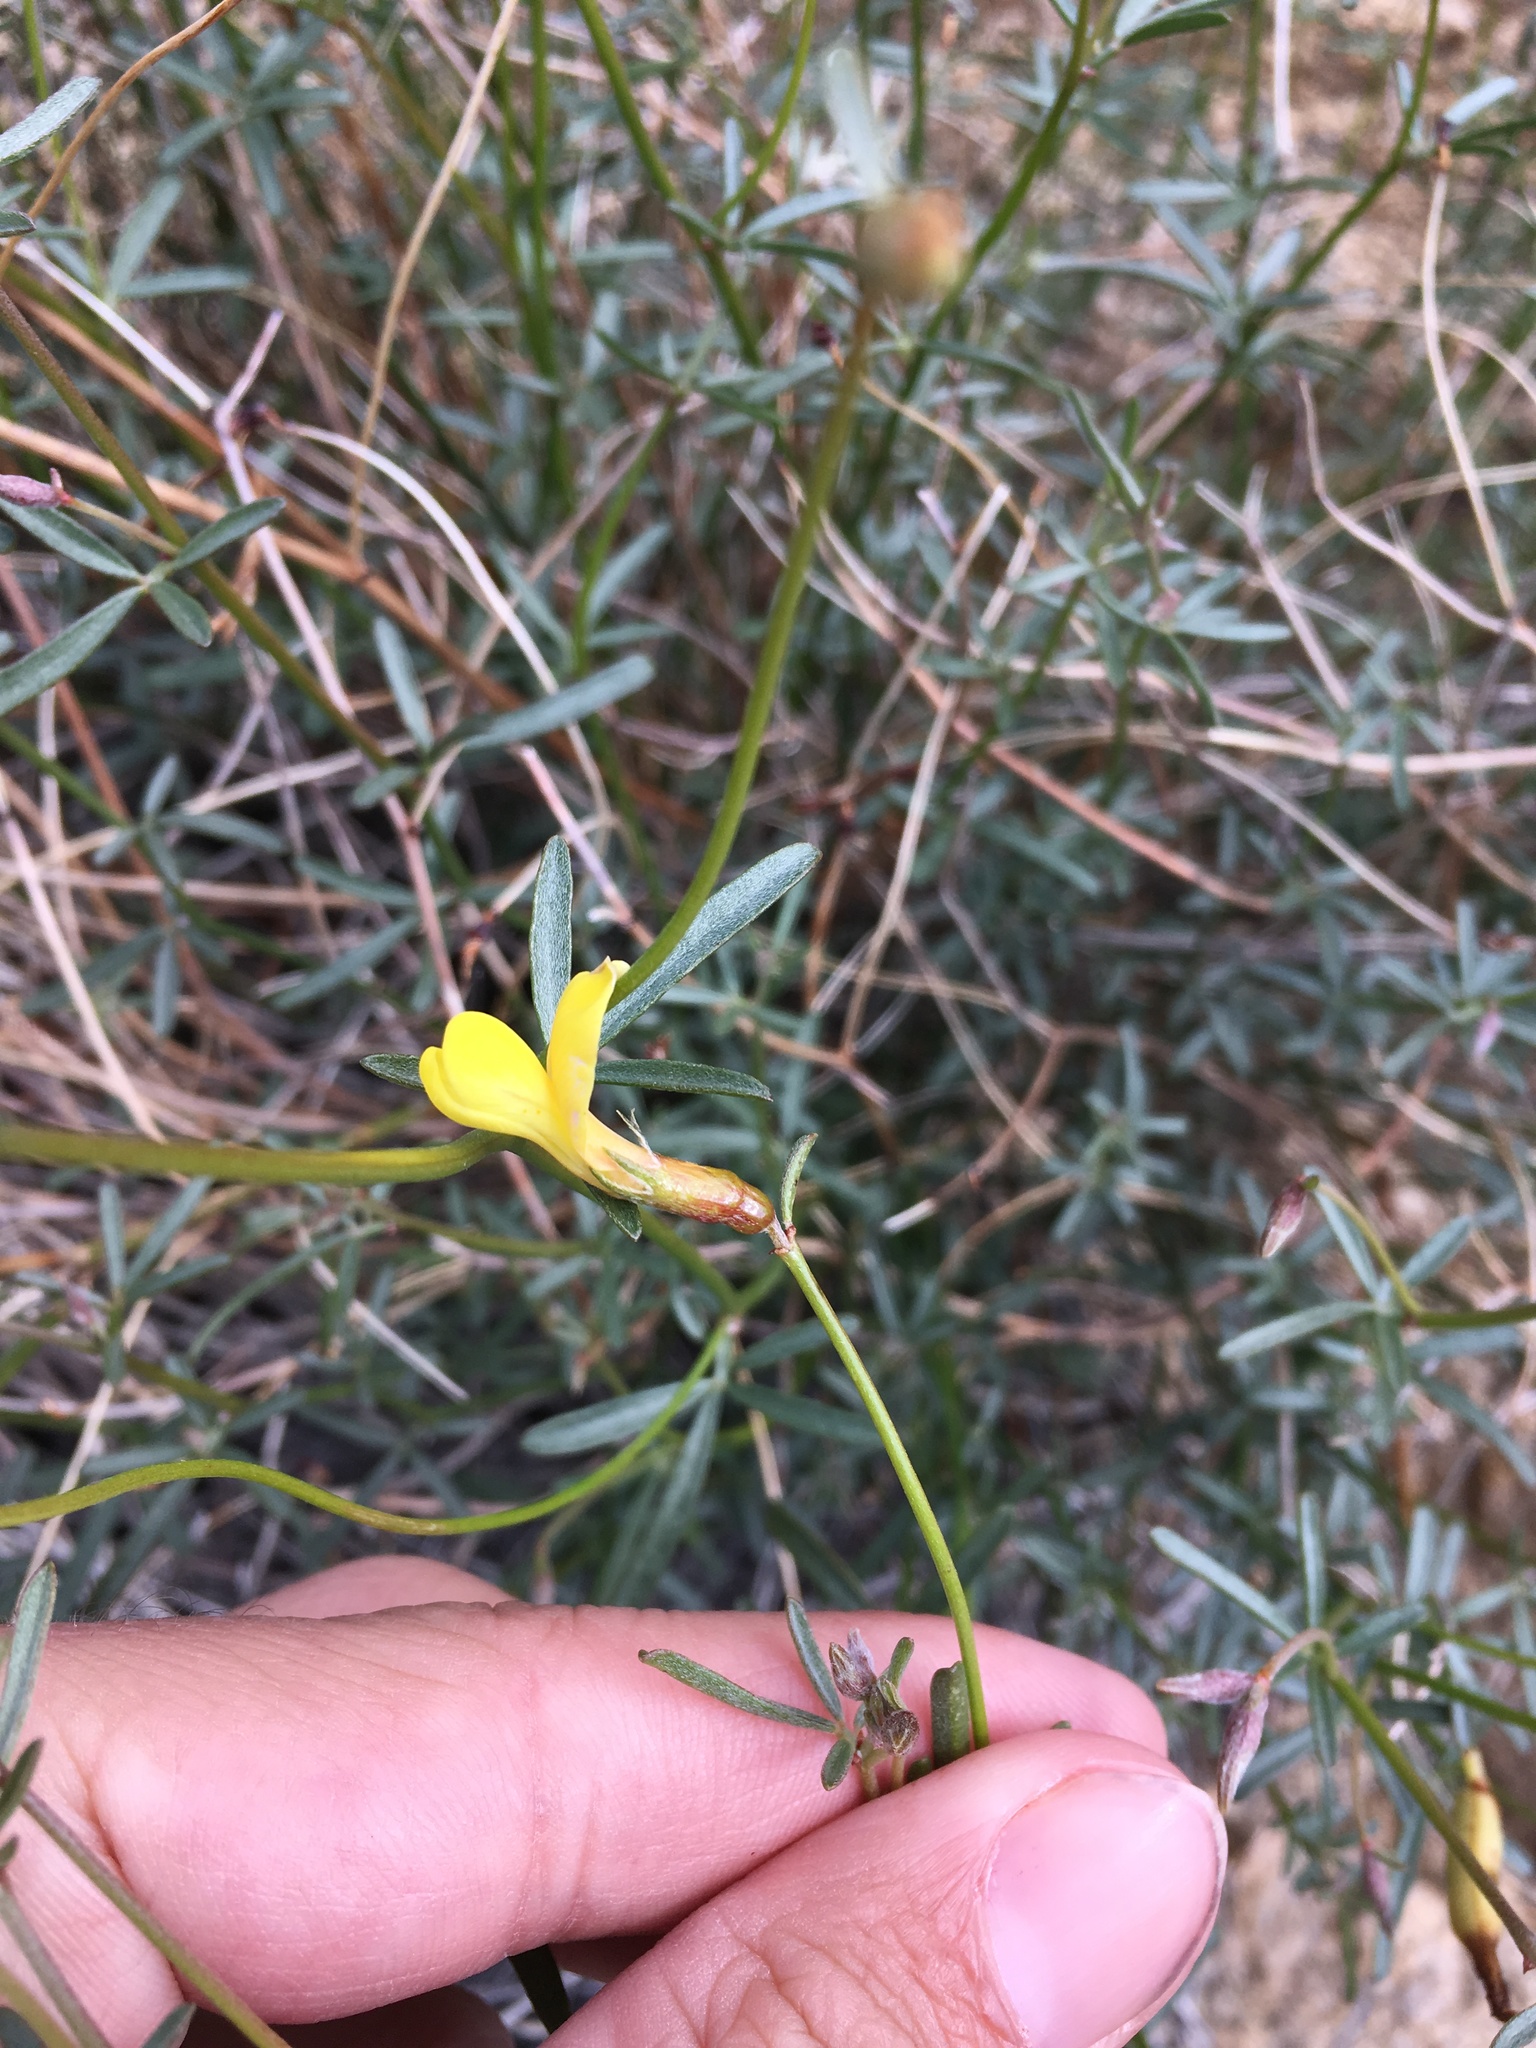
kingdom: Plantae
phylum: Tracheophyta
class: Magnoliopsida
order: Fabales
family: Fabaceae
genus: Acmispon
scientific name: Acmispon rigidus
